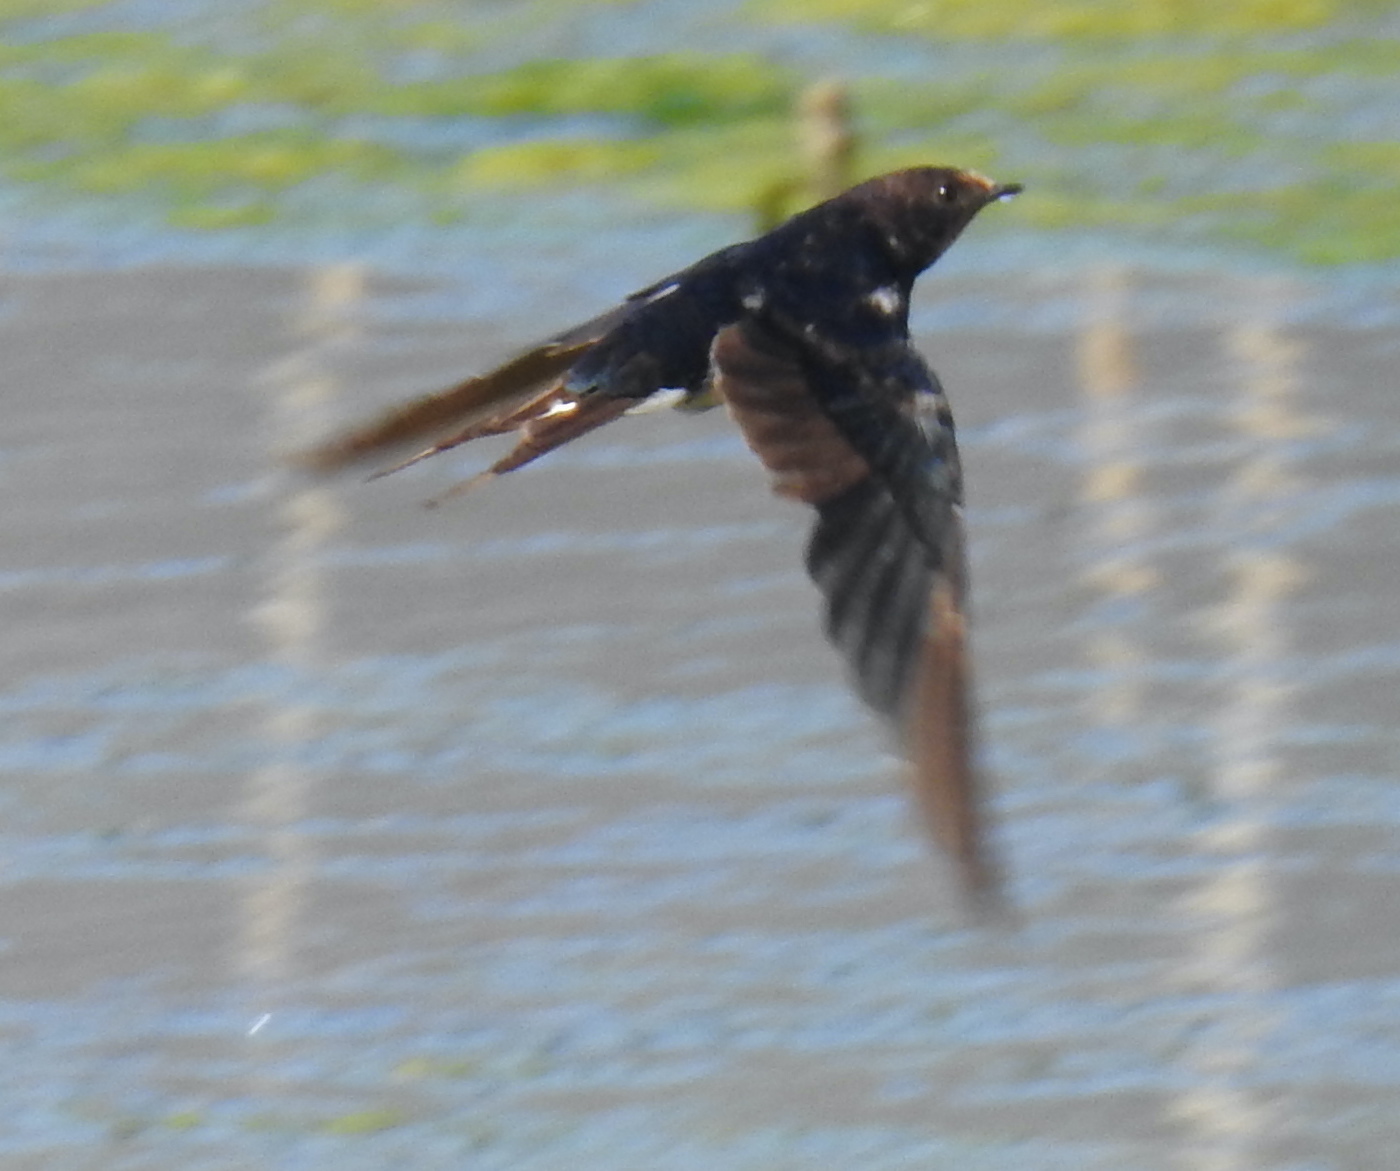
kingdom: Animalia
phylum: Chordata
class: Aves
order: Passeriformes
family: Hirundinidae
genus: Hirundo
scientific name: Hirundo rustica
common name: Barn swallow
